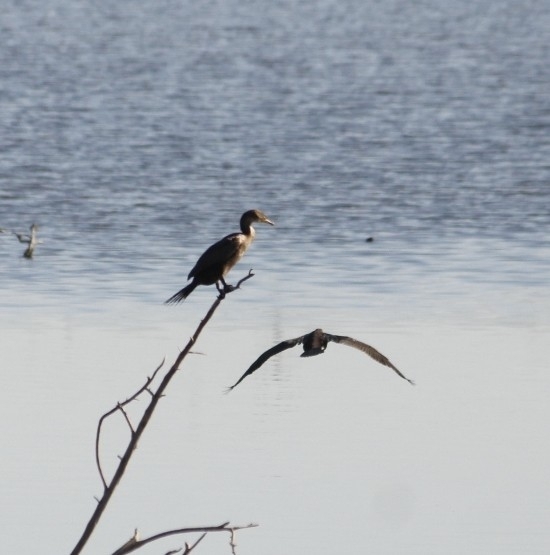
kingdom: Animalia
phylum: Chordata
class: Aves
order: Suliformes
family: Phalacrocoracidae
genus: Phalacrocorax
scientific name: Phalacrocorax auritus
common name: Double-crested cormorant
